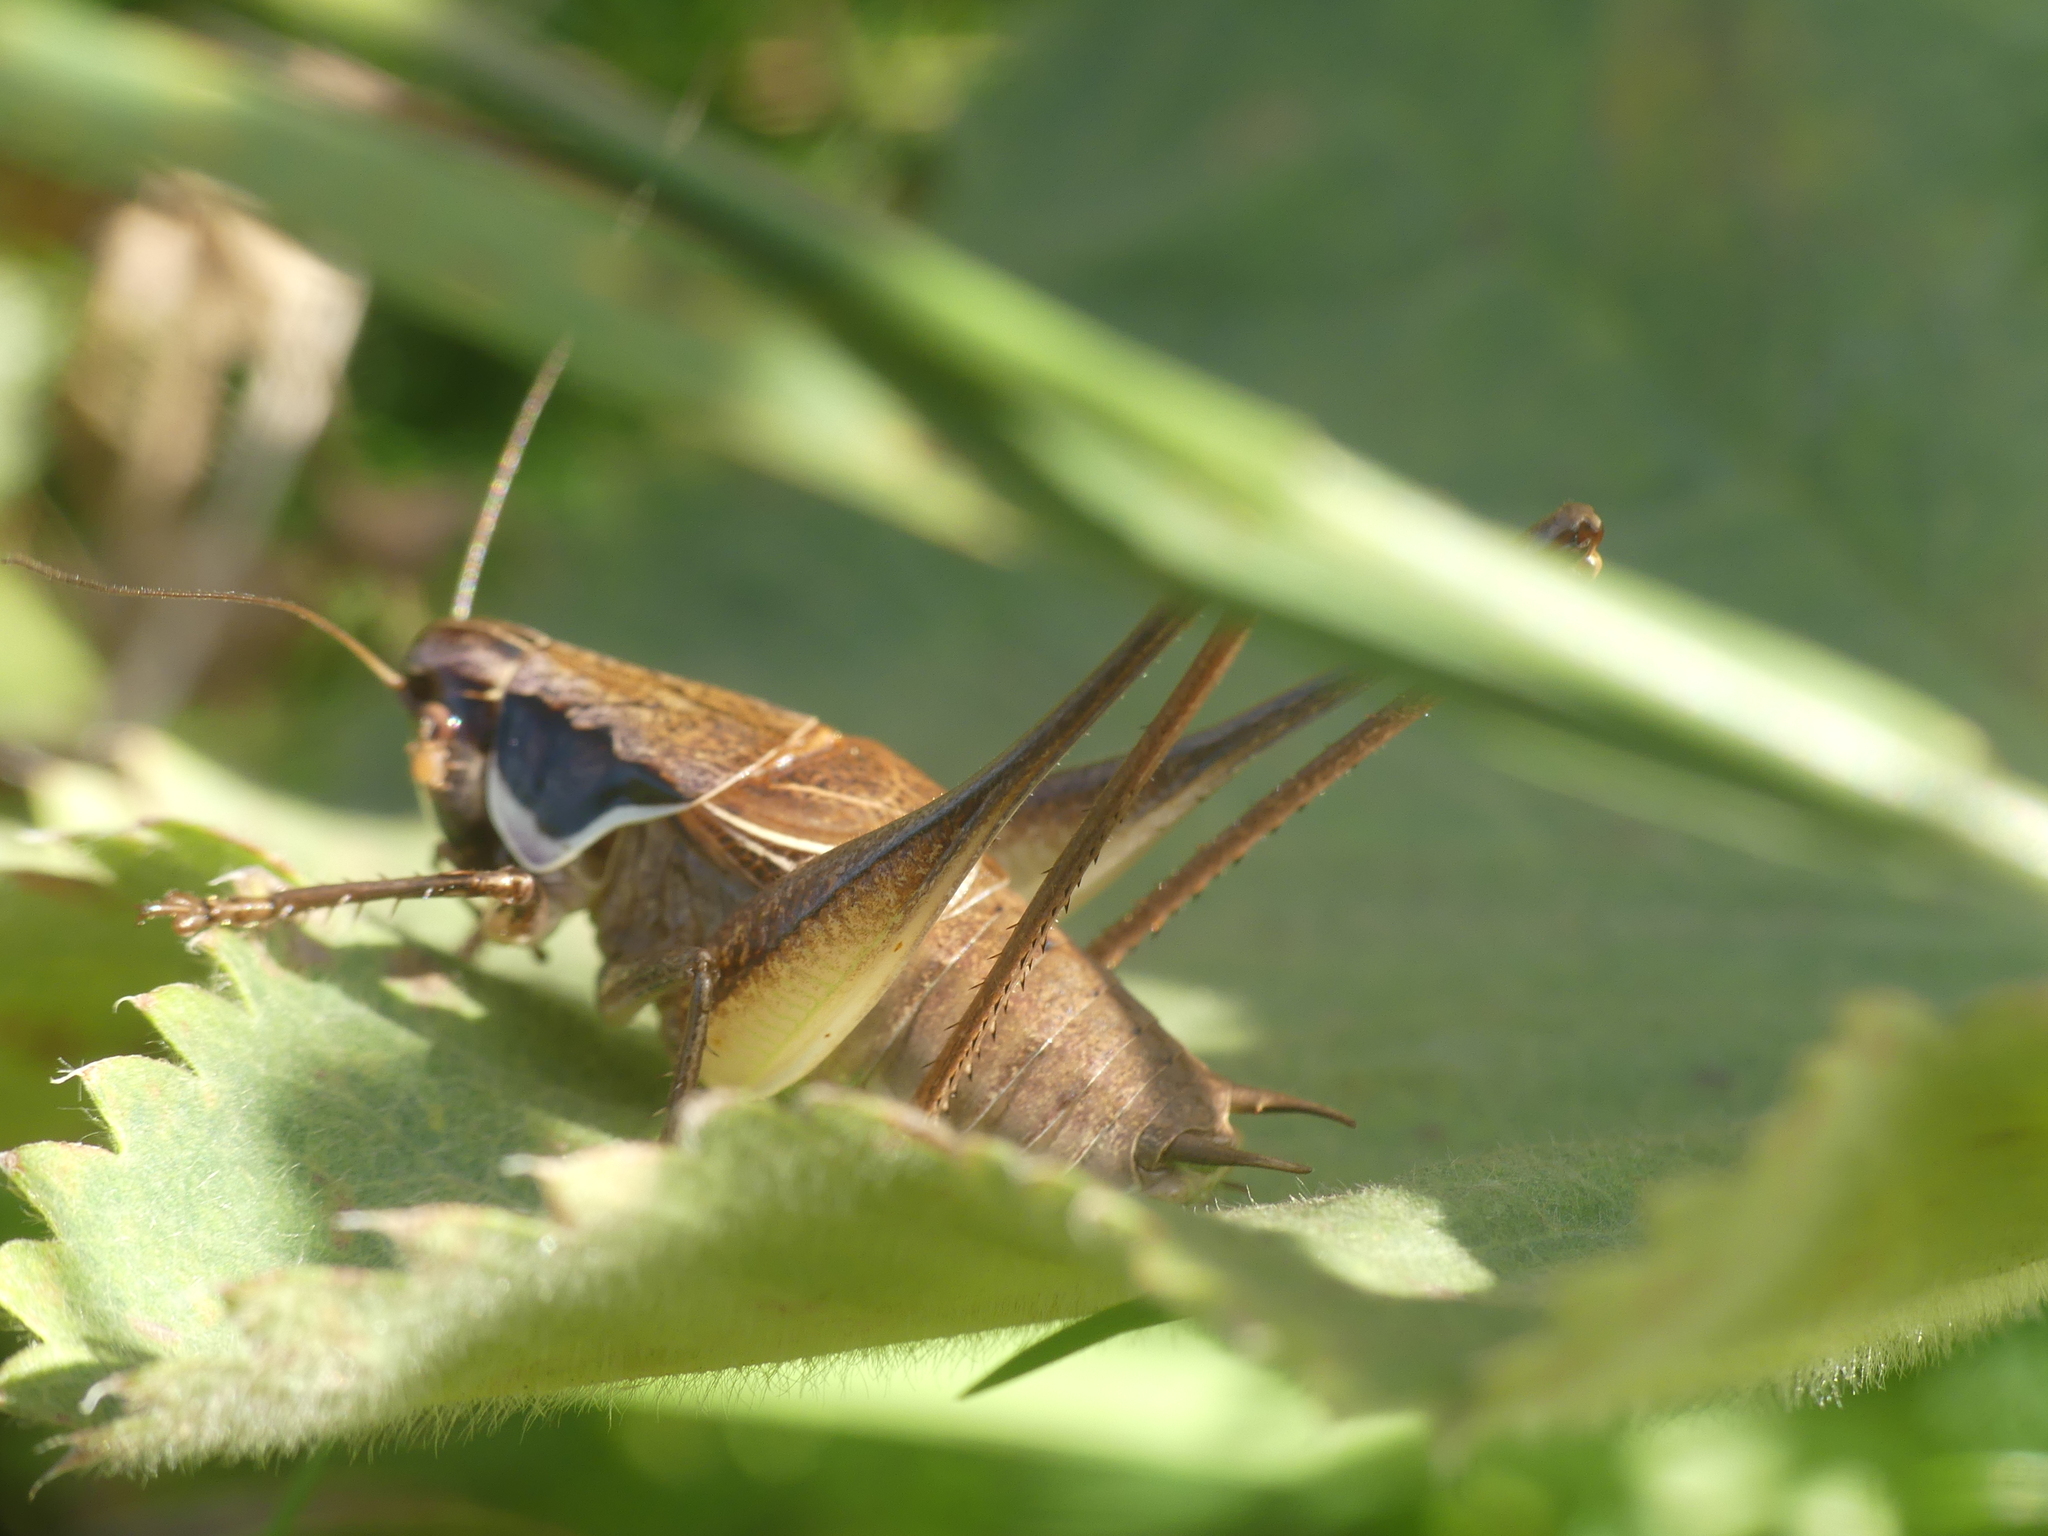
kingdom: Animalia
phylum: Arthropoda
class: Insecta
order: Orthoptera
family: Tettigoniidae
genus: Pholidoptera
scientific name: Pholidoptera littoralis
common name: Littoral dark bush-cricket
